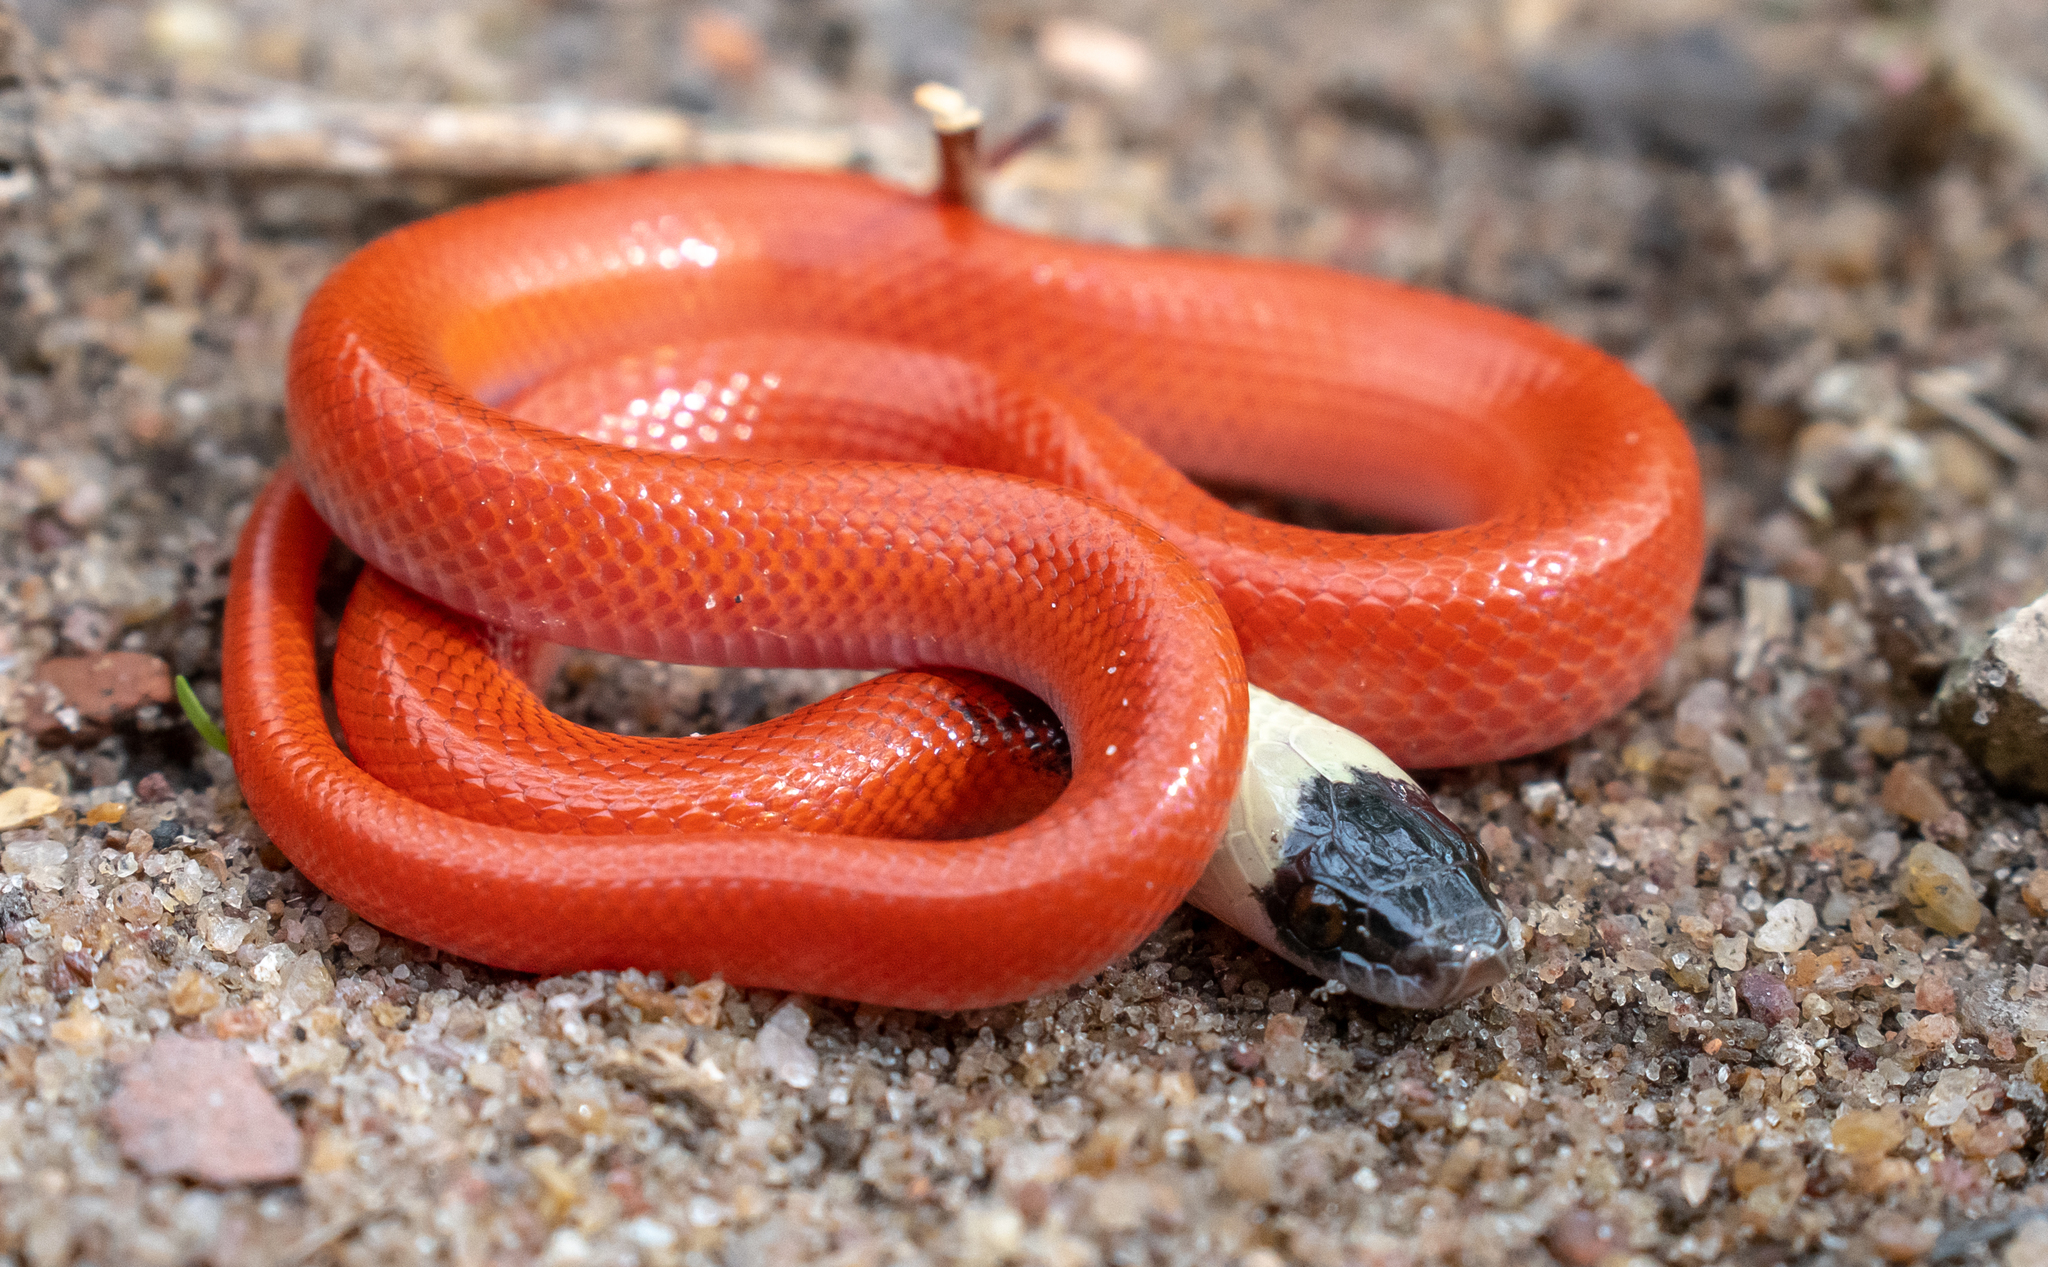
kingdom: Animalia
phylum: Chordata
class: Squamata
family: Colubridae
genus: Pseudoboa
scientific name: Pseudoboa neuwiedii
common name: Neuwied's false boa
